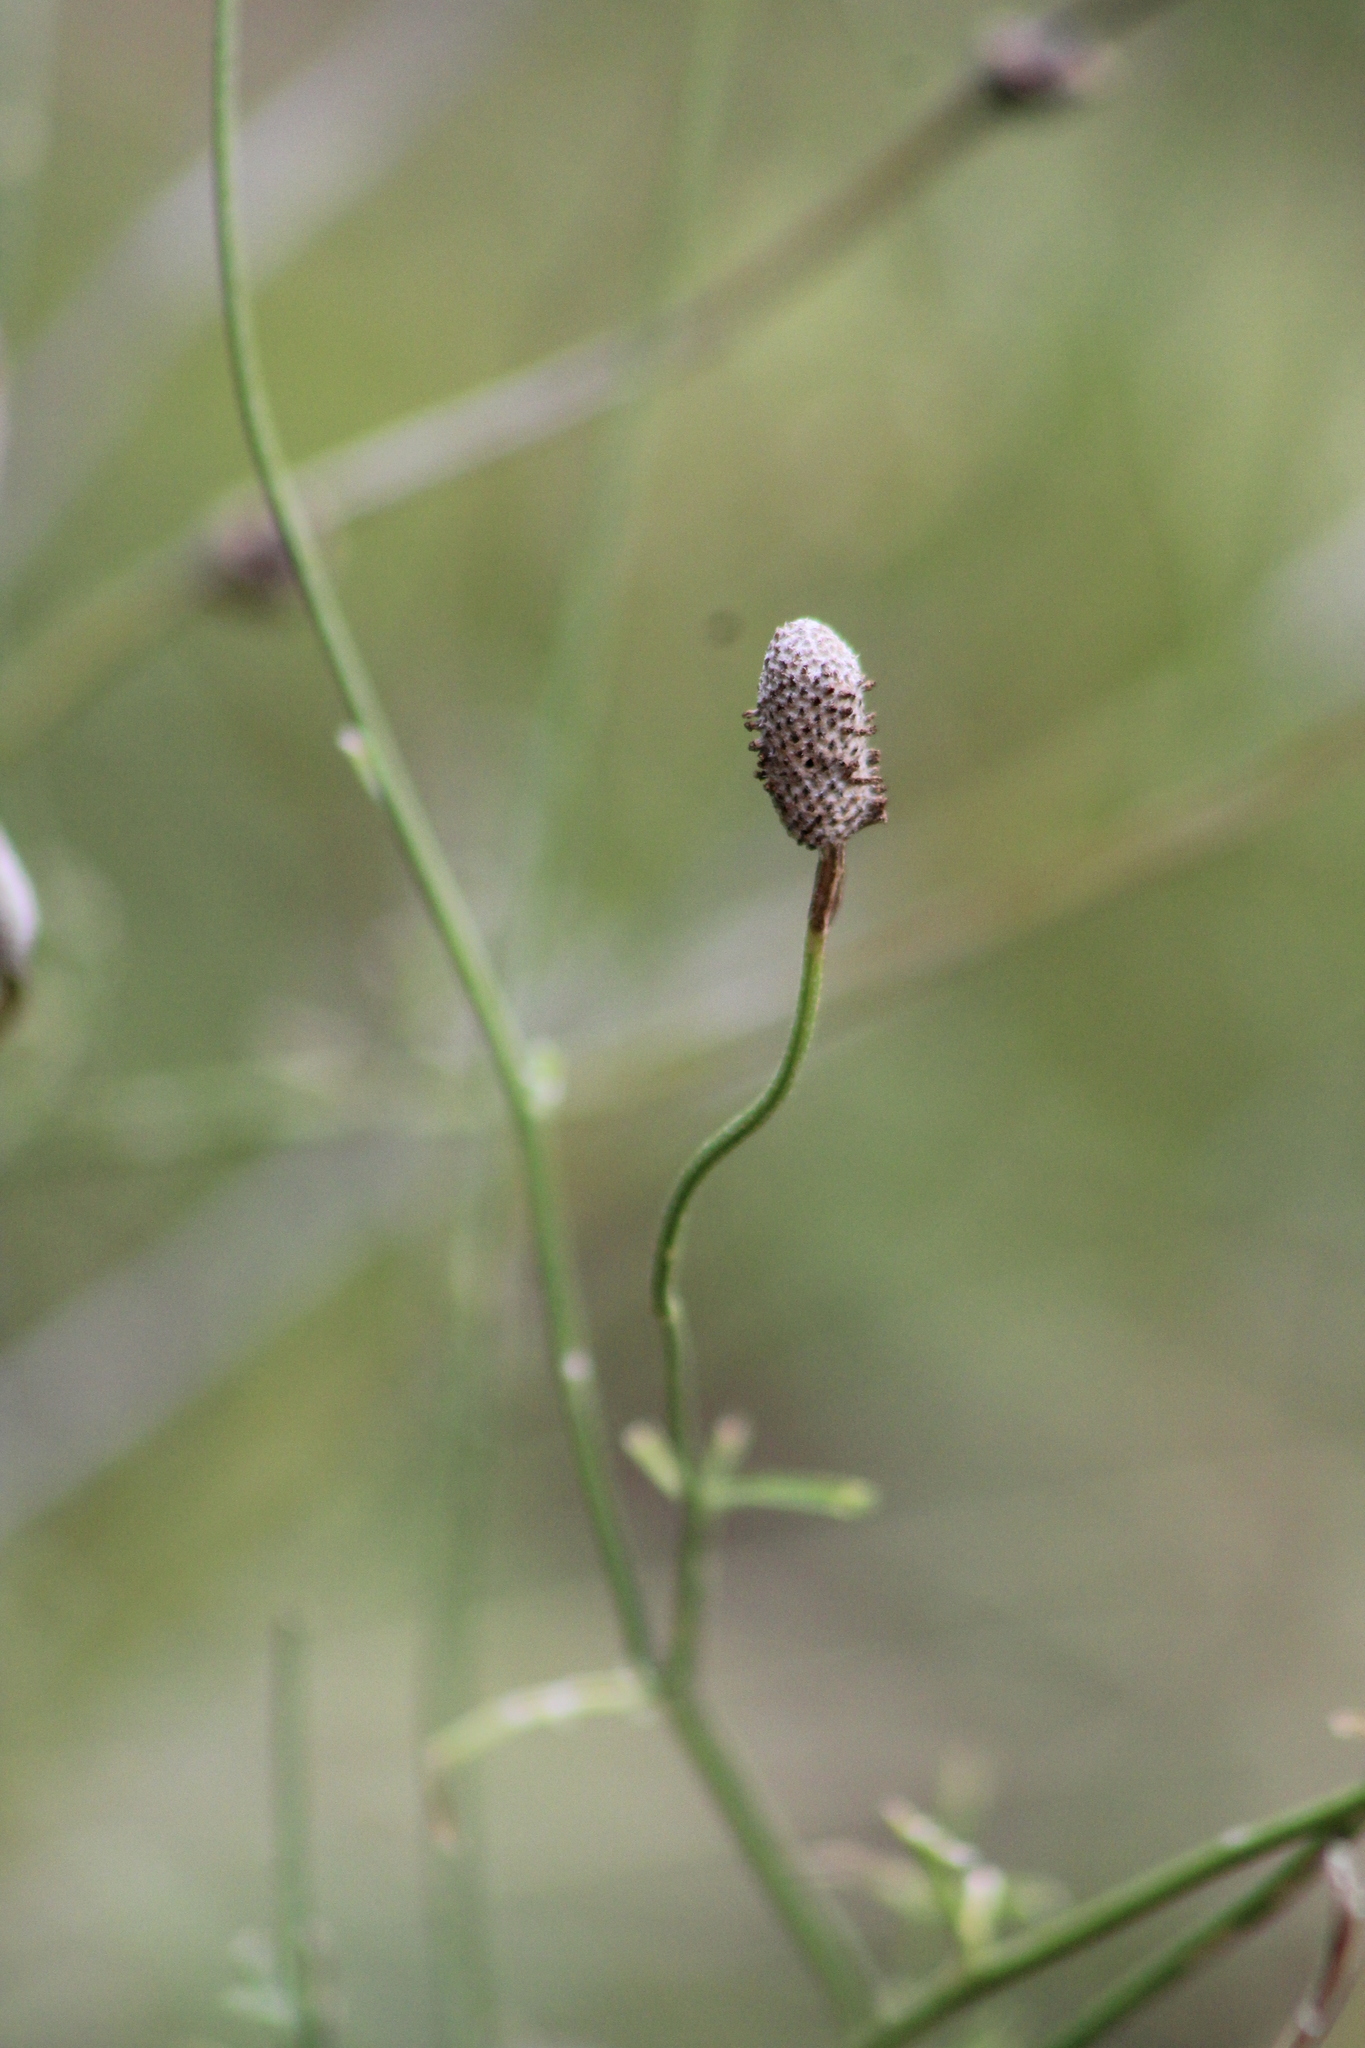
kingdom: Plantae
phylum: Tracheophyta
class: Magnoliopsida
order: Asterales
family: Asteraceae
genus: Ratibida
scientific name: Ratibida columnifera
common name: Prairie coneflower
